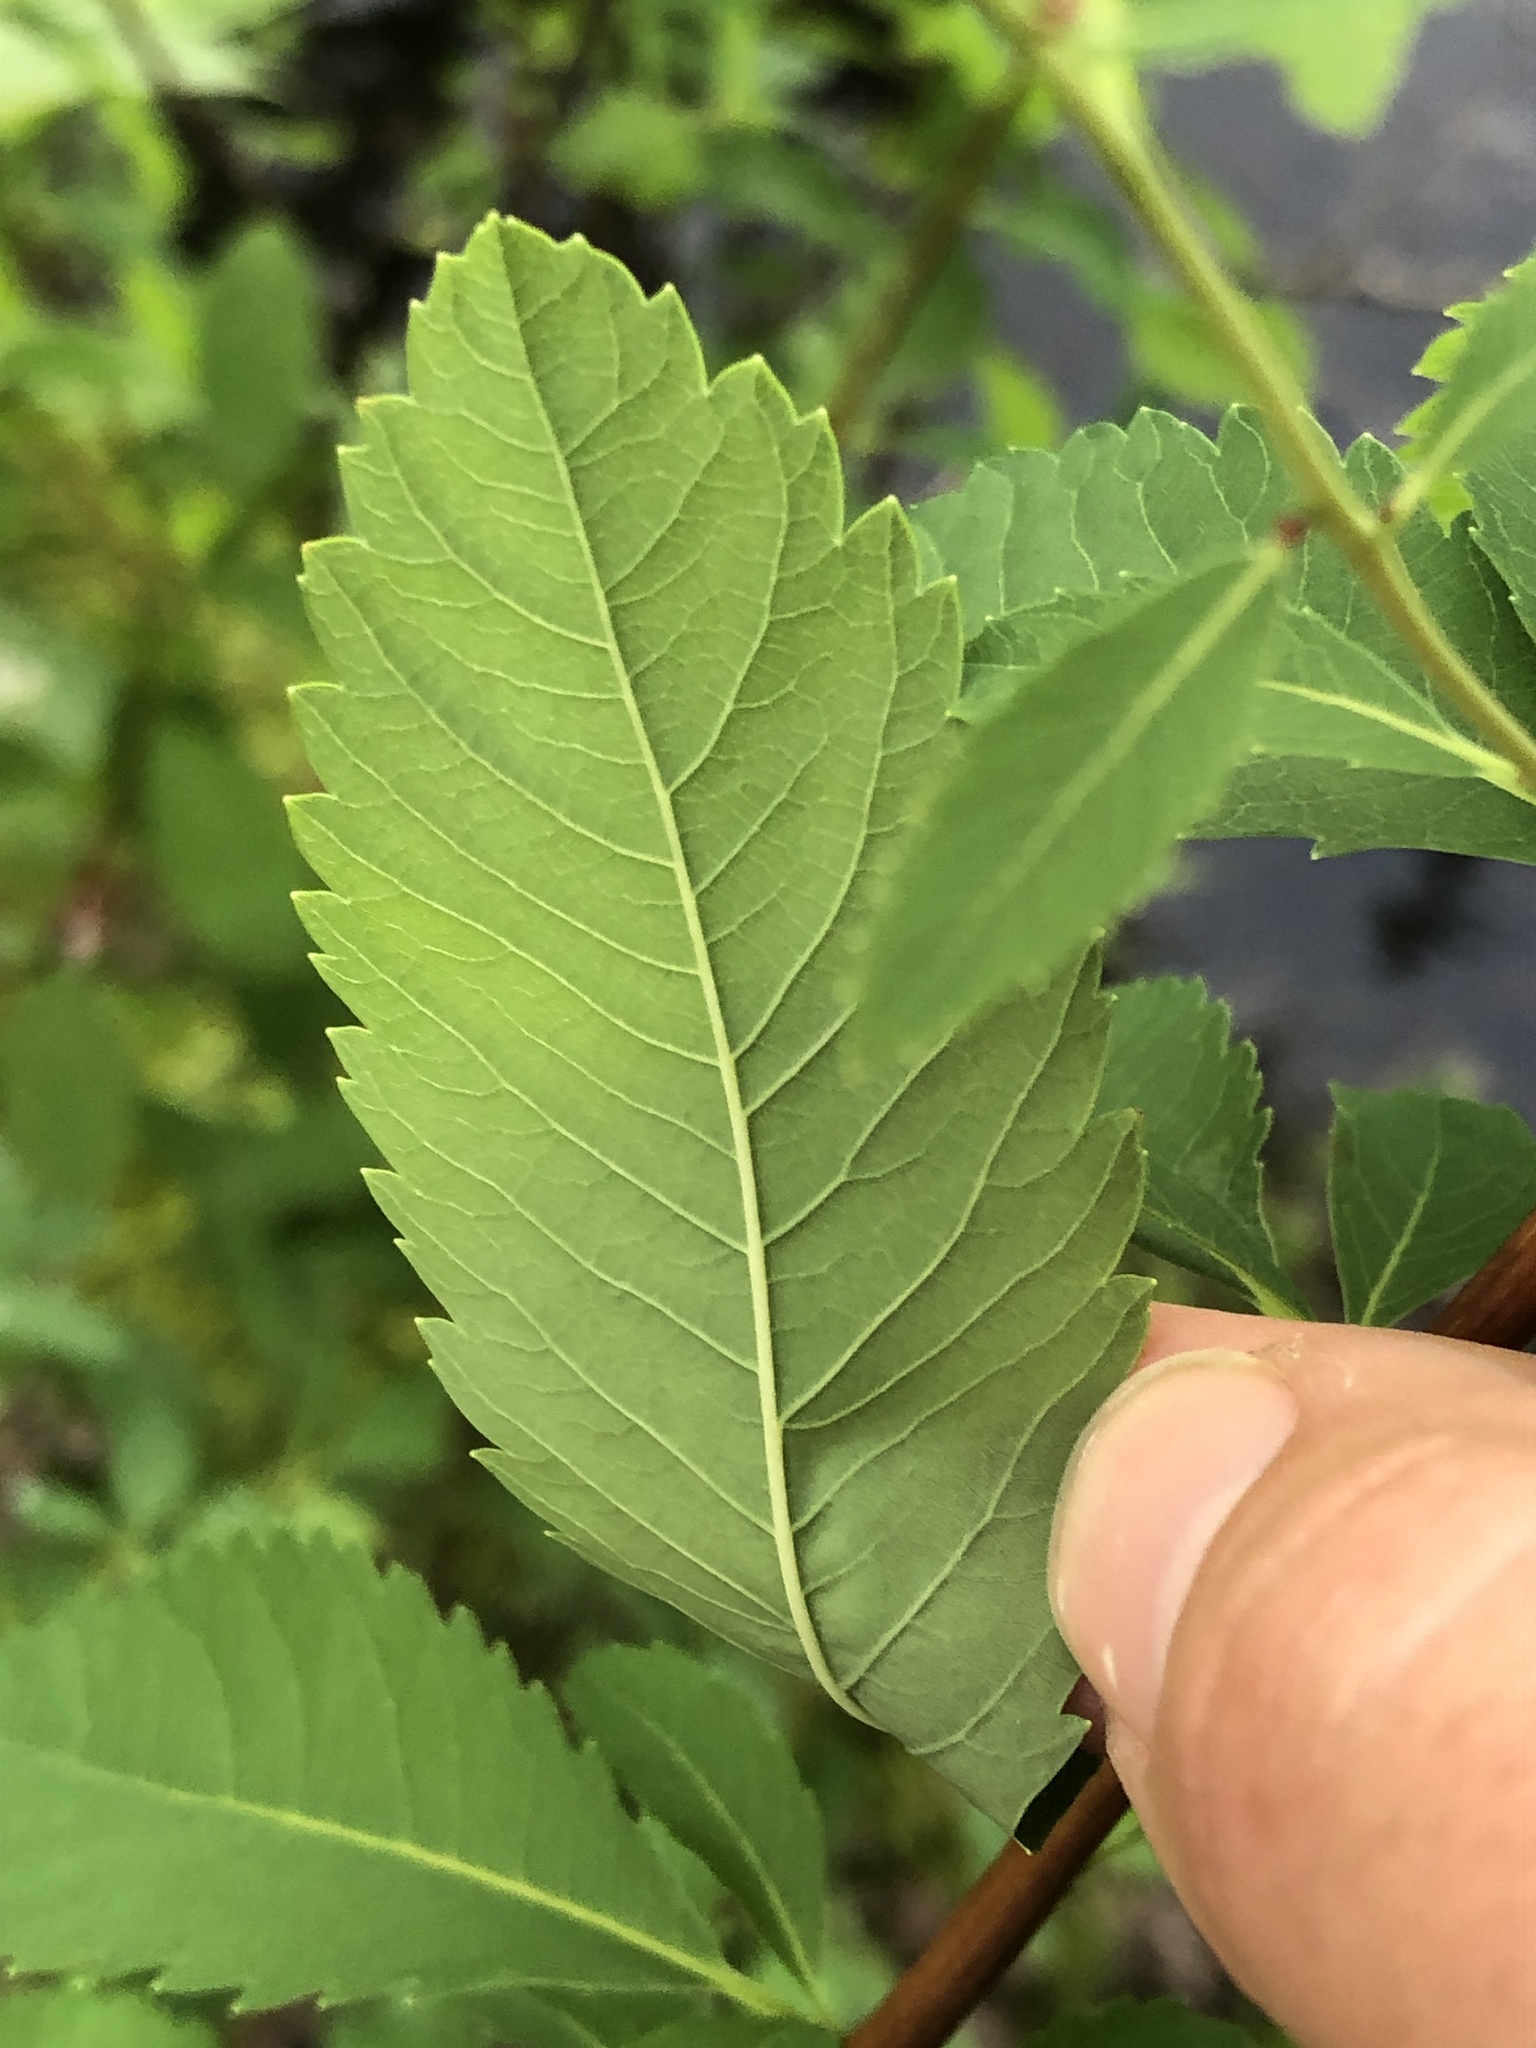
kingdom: Plantae
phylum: Tracheophyta
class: Magnoliopsida
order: Rosales
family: Rosaceae
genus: Spiraea
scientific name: Spiraea alba
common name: Pale bridewort
